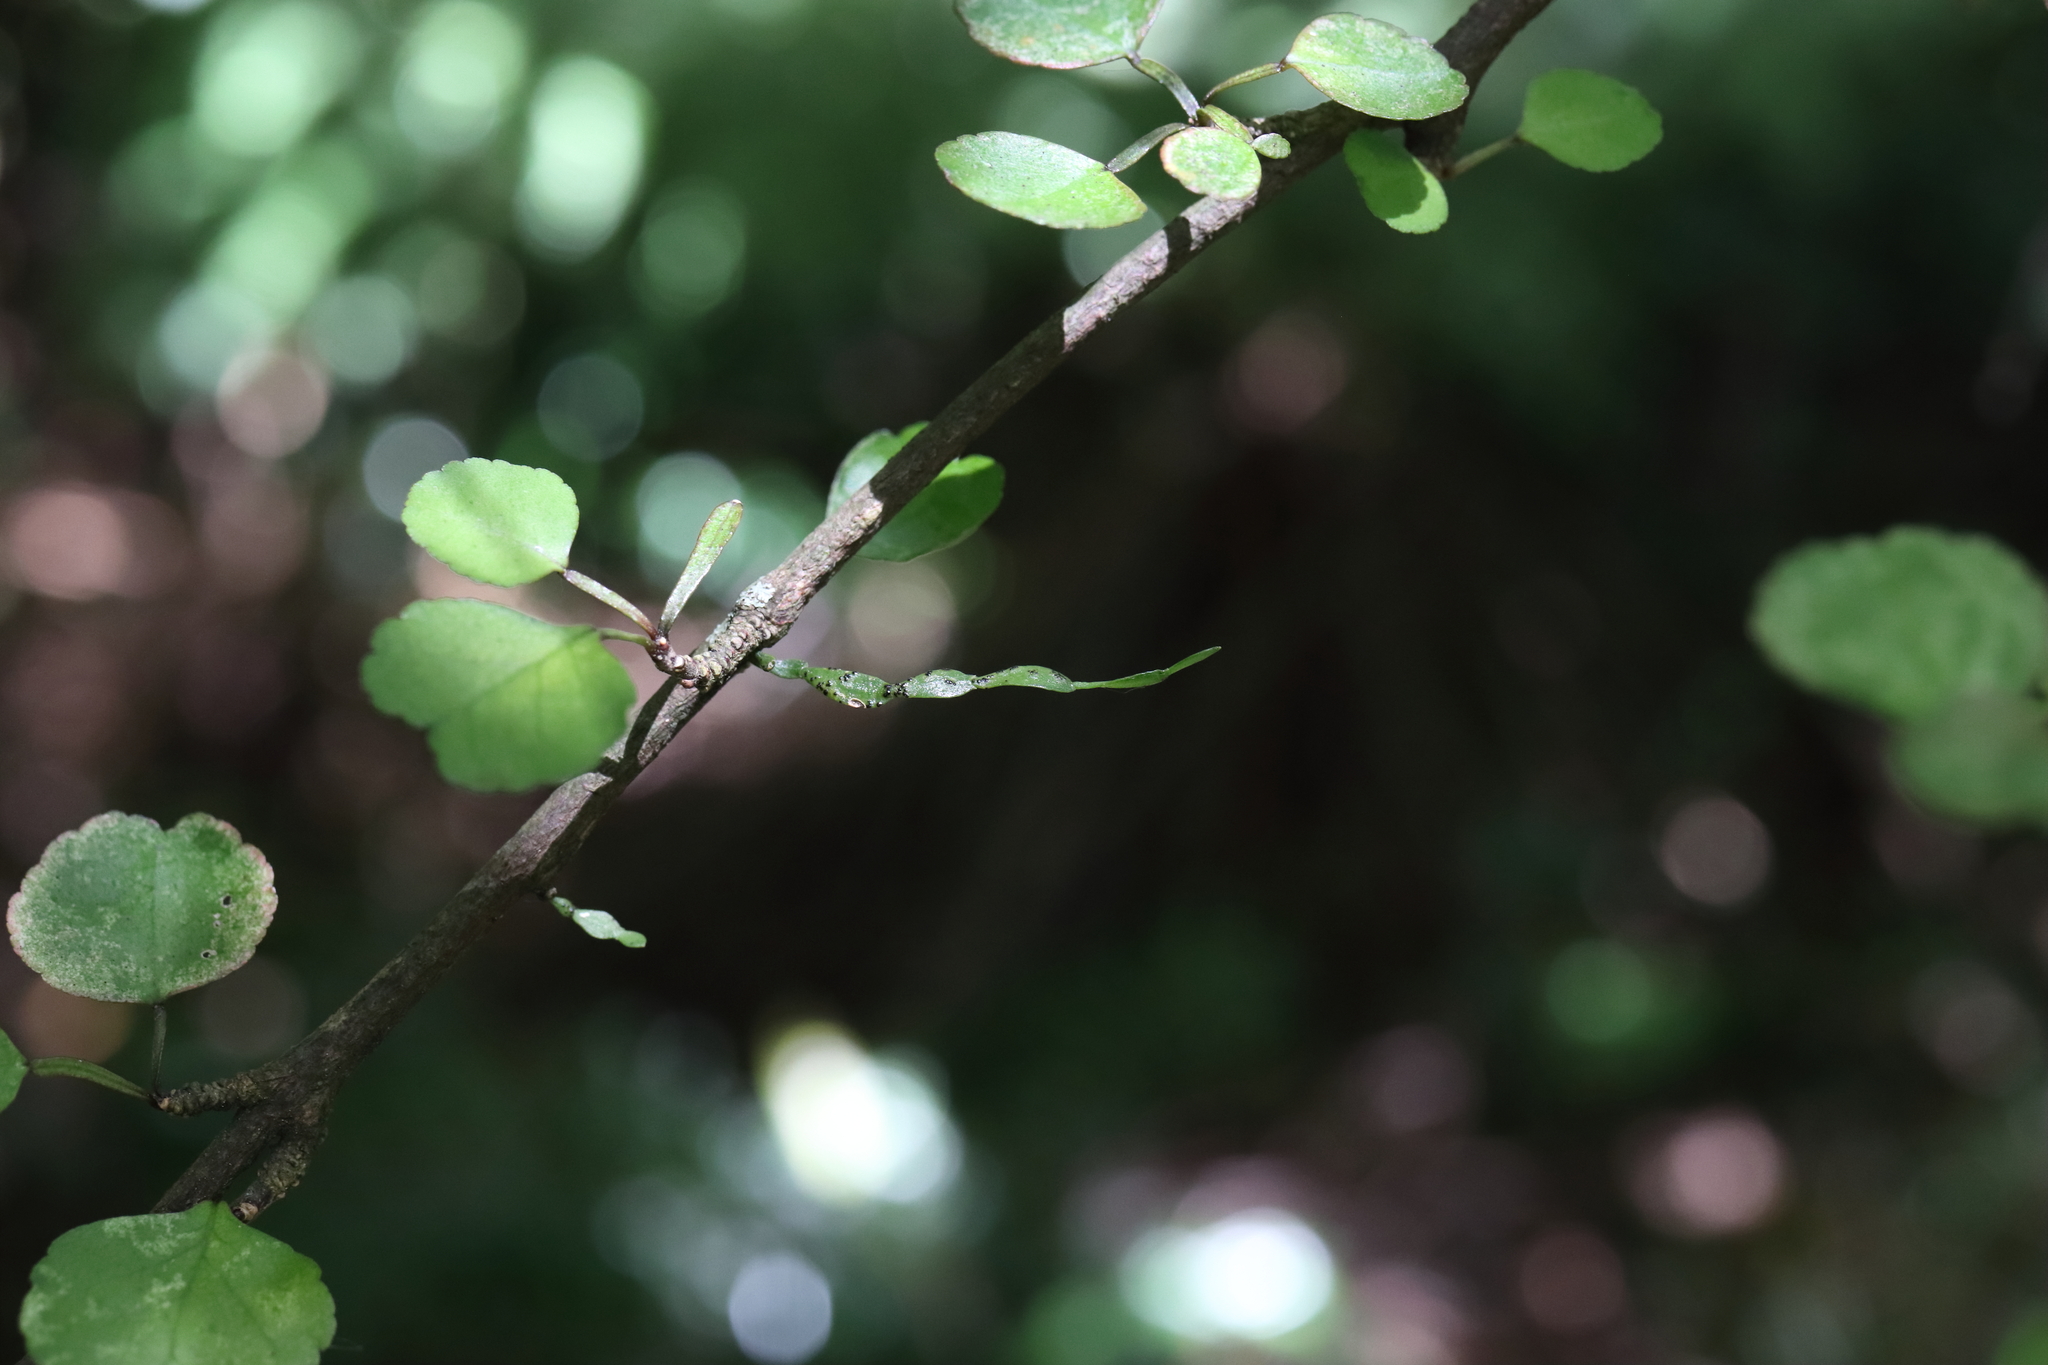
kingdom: Plantae
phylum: Tracheophyta
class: Magnoliopsida
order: Santalales
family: Viscaceae
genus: Korthalsella
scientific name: Korthalsella lindsayi
